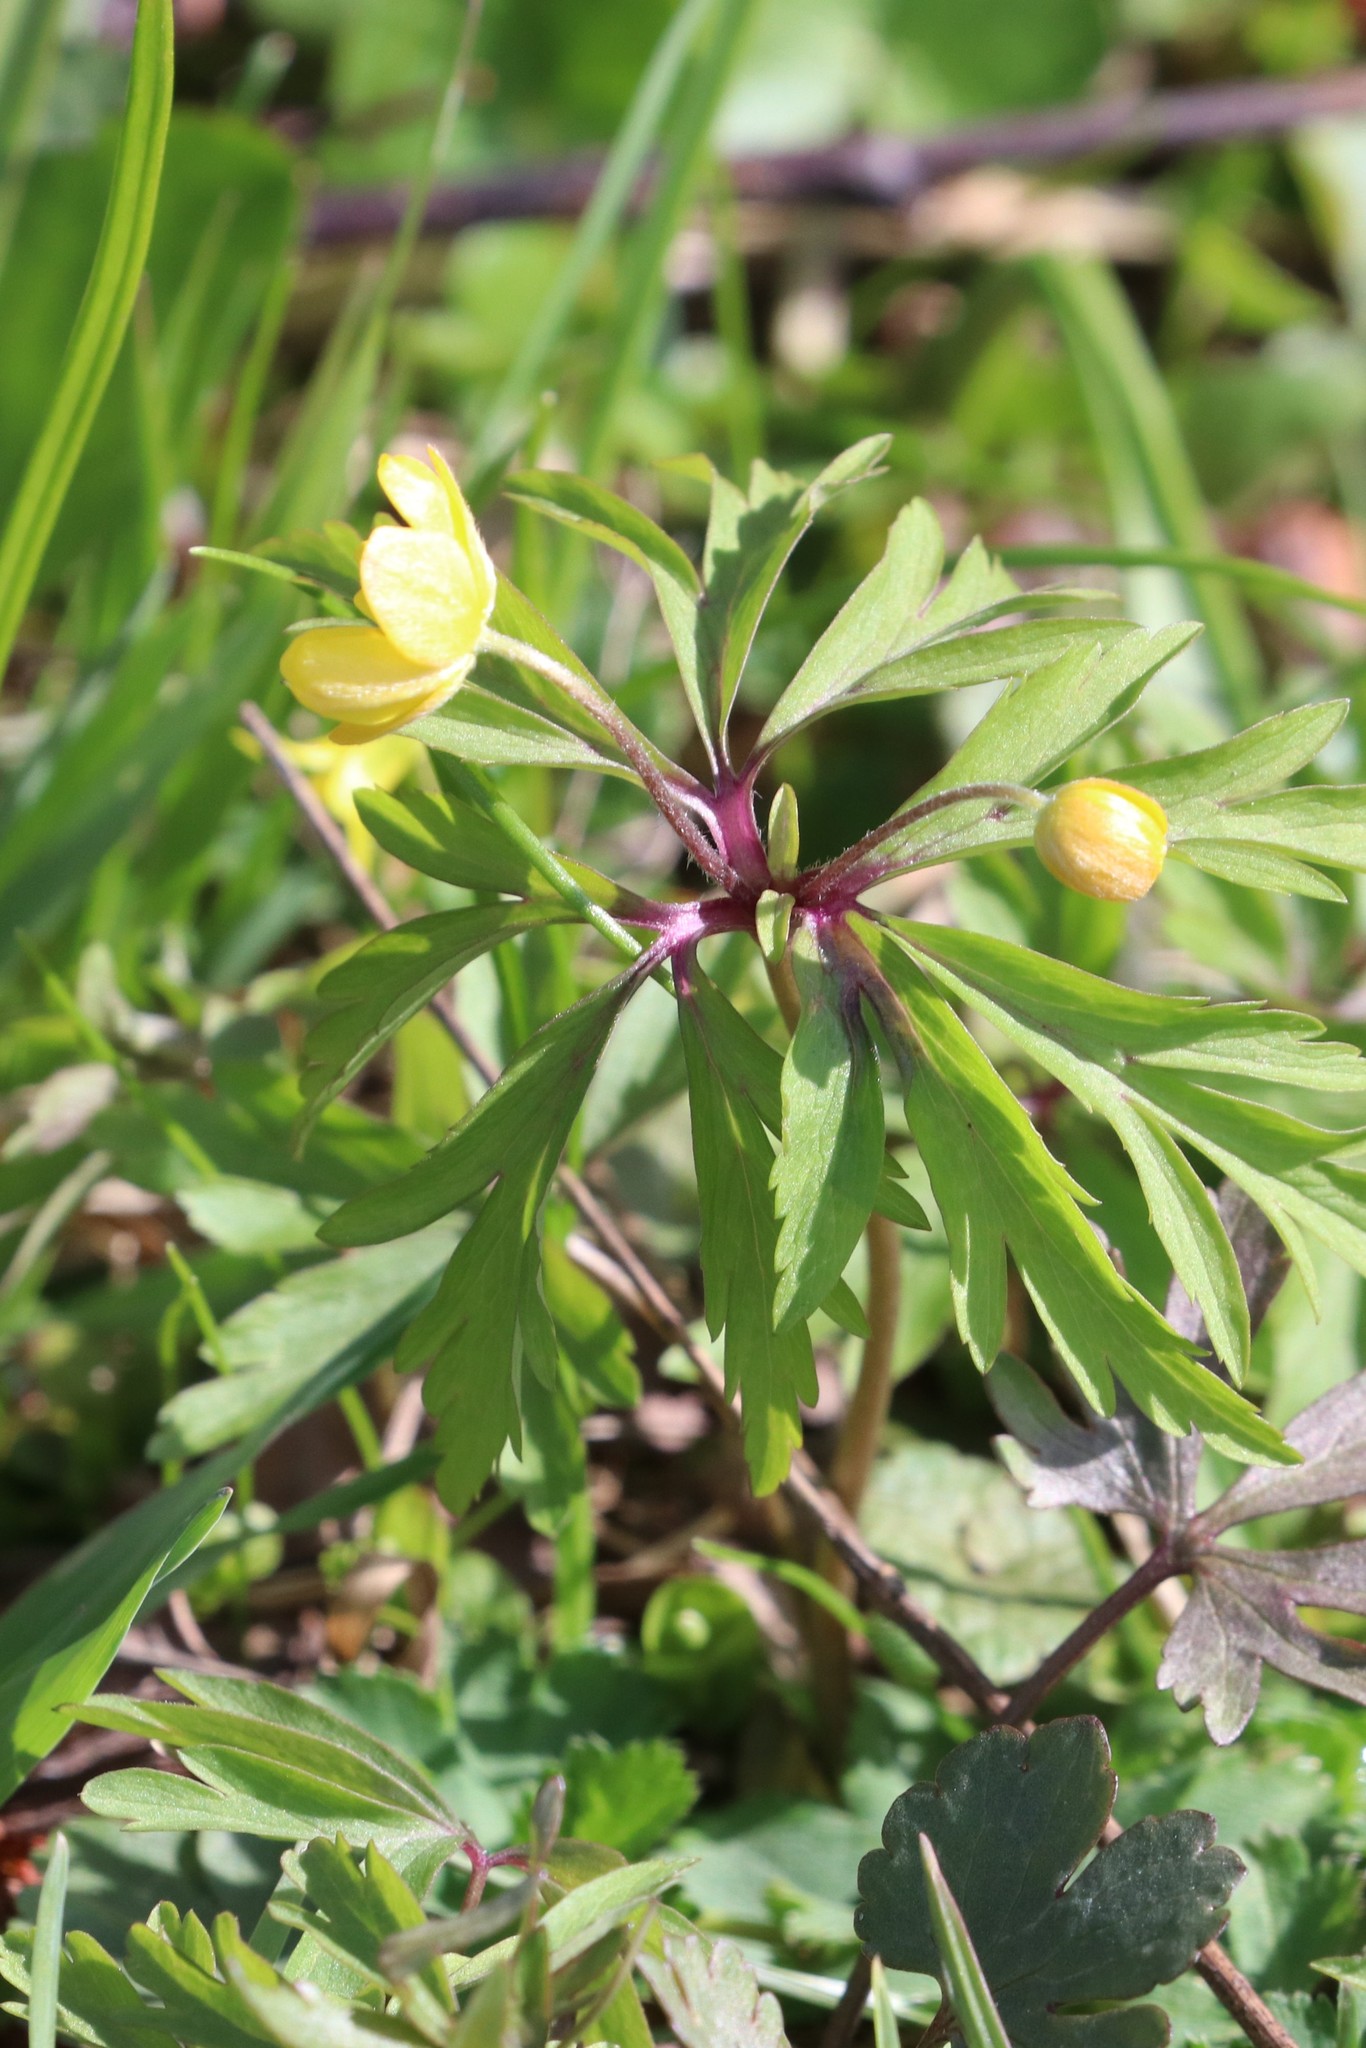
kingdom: Plantae
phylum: Tracheophyta
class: Magnoliopsida
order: Ranunculales
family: Ranunculaceae
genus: Anemone
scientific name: Anemone ranunculoides
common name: Yellow anemone
